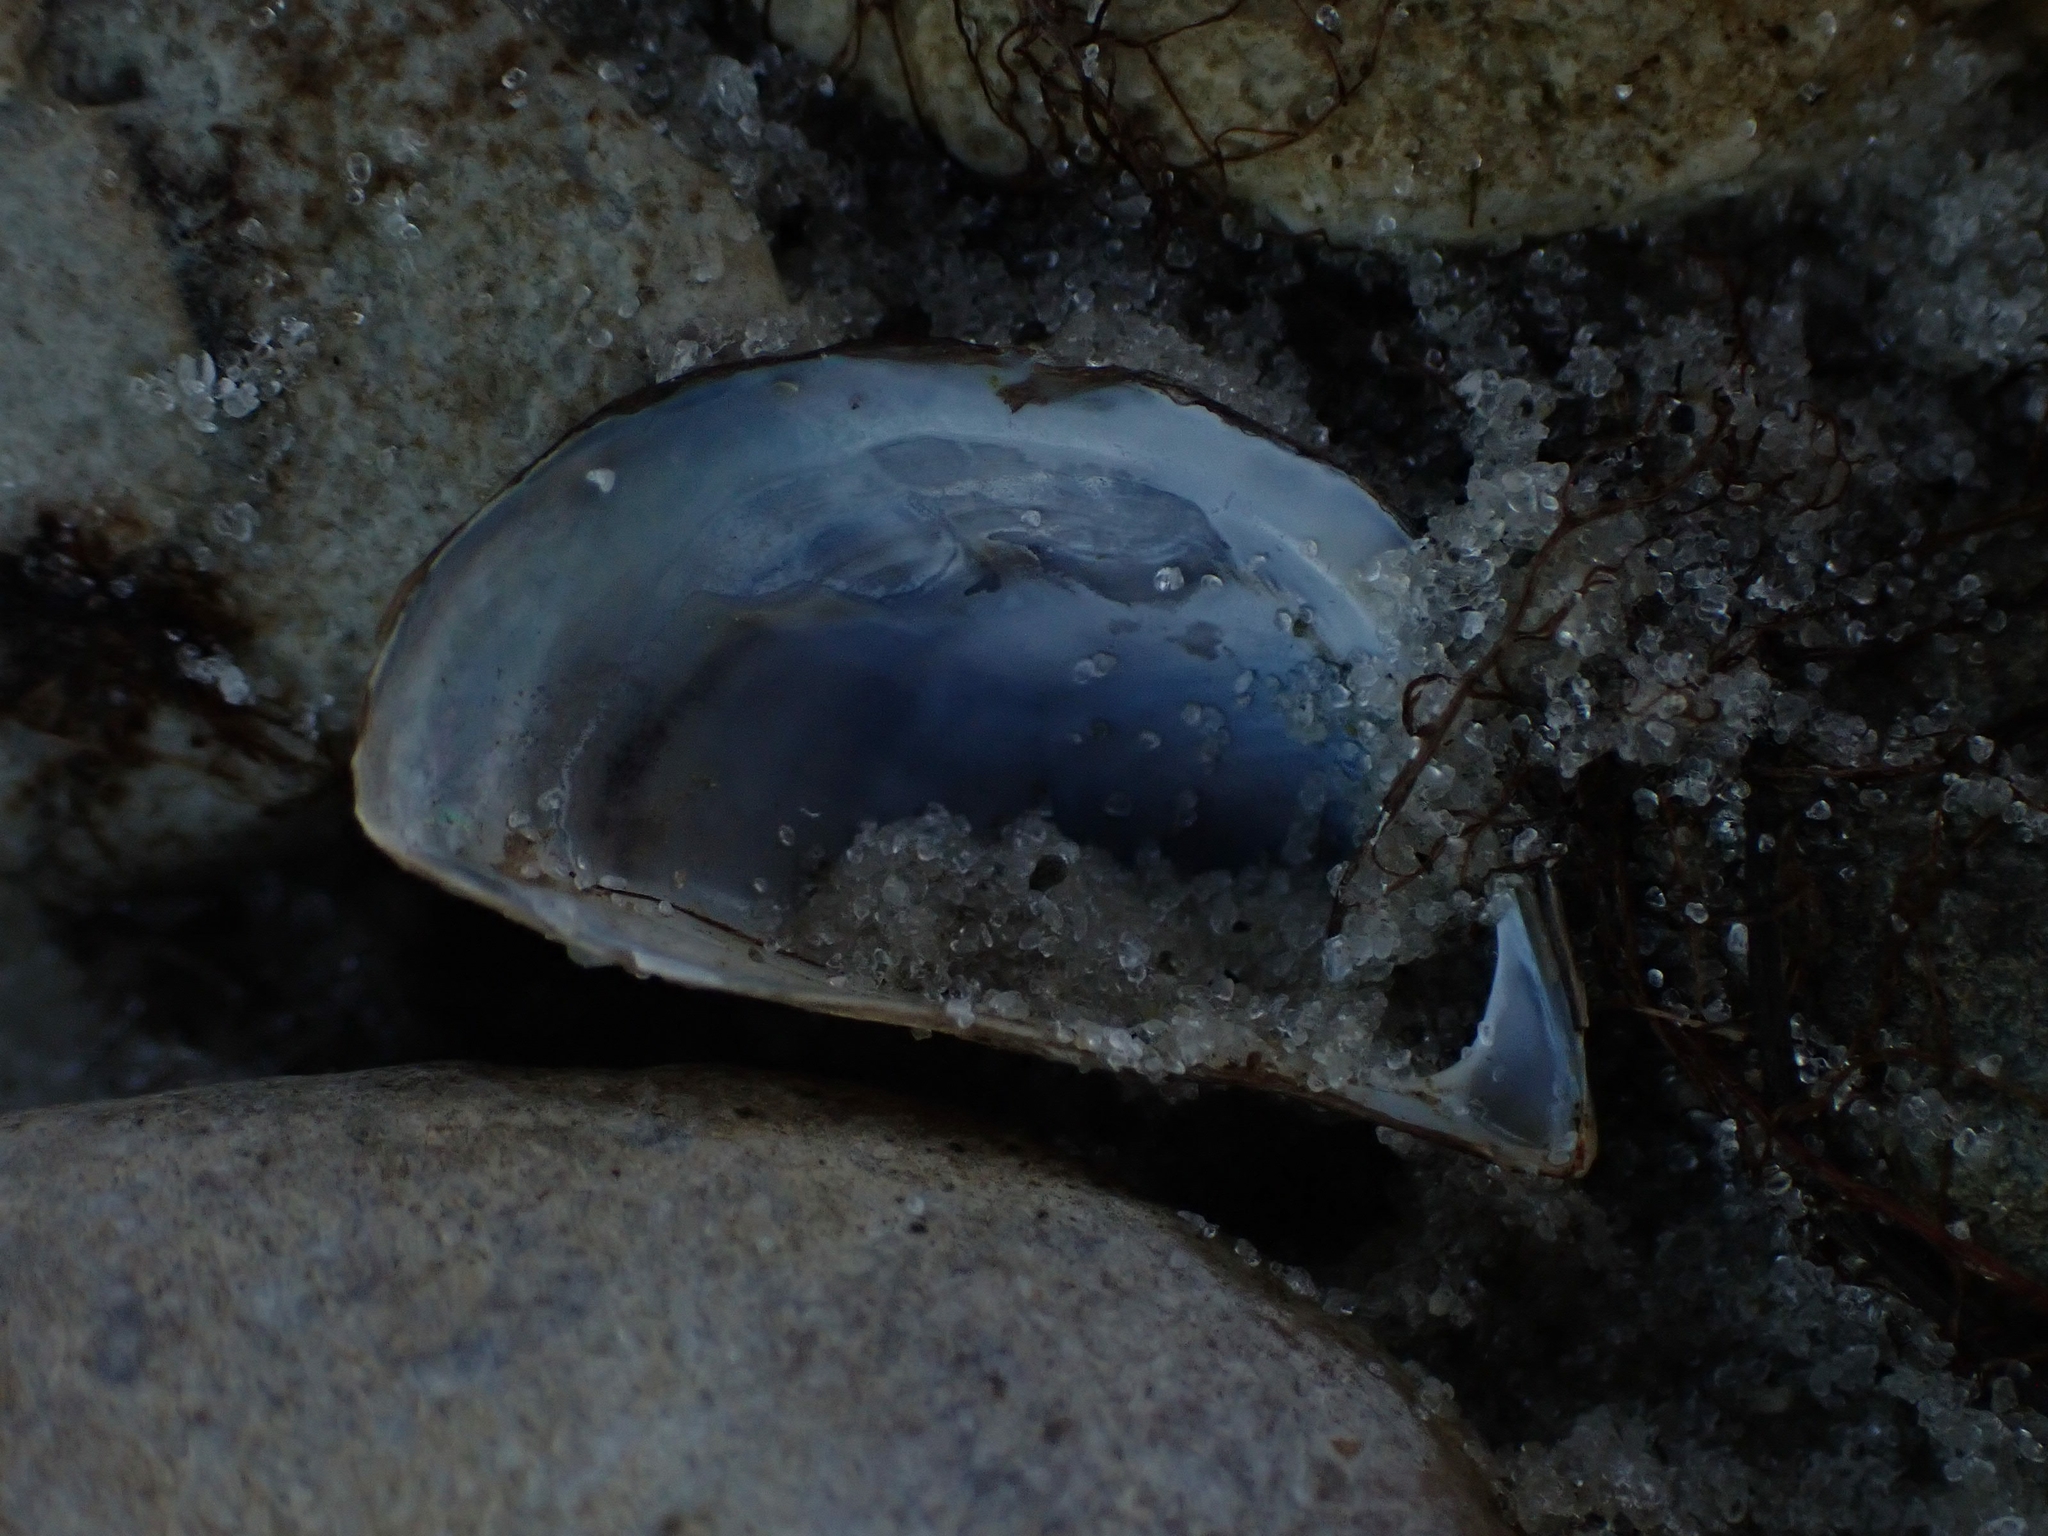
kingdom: Animalia
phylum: Mollusca
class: Bivalvia
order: Myida
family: Dreissenidae
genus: Dreissena
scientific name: Dreissena polymorpha
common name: Zebra mussel
